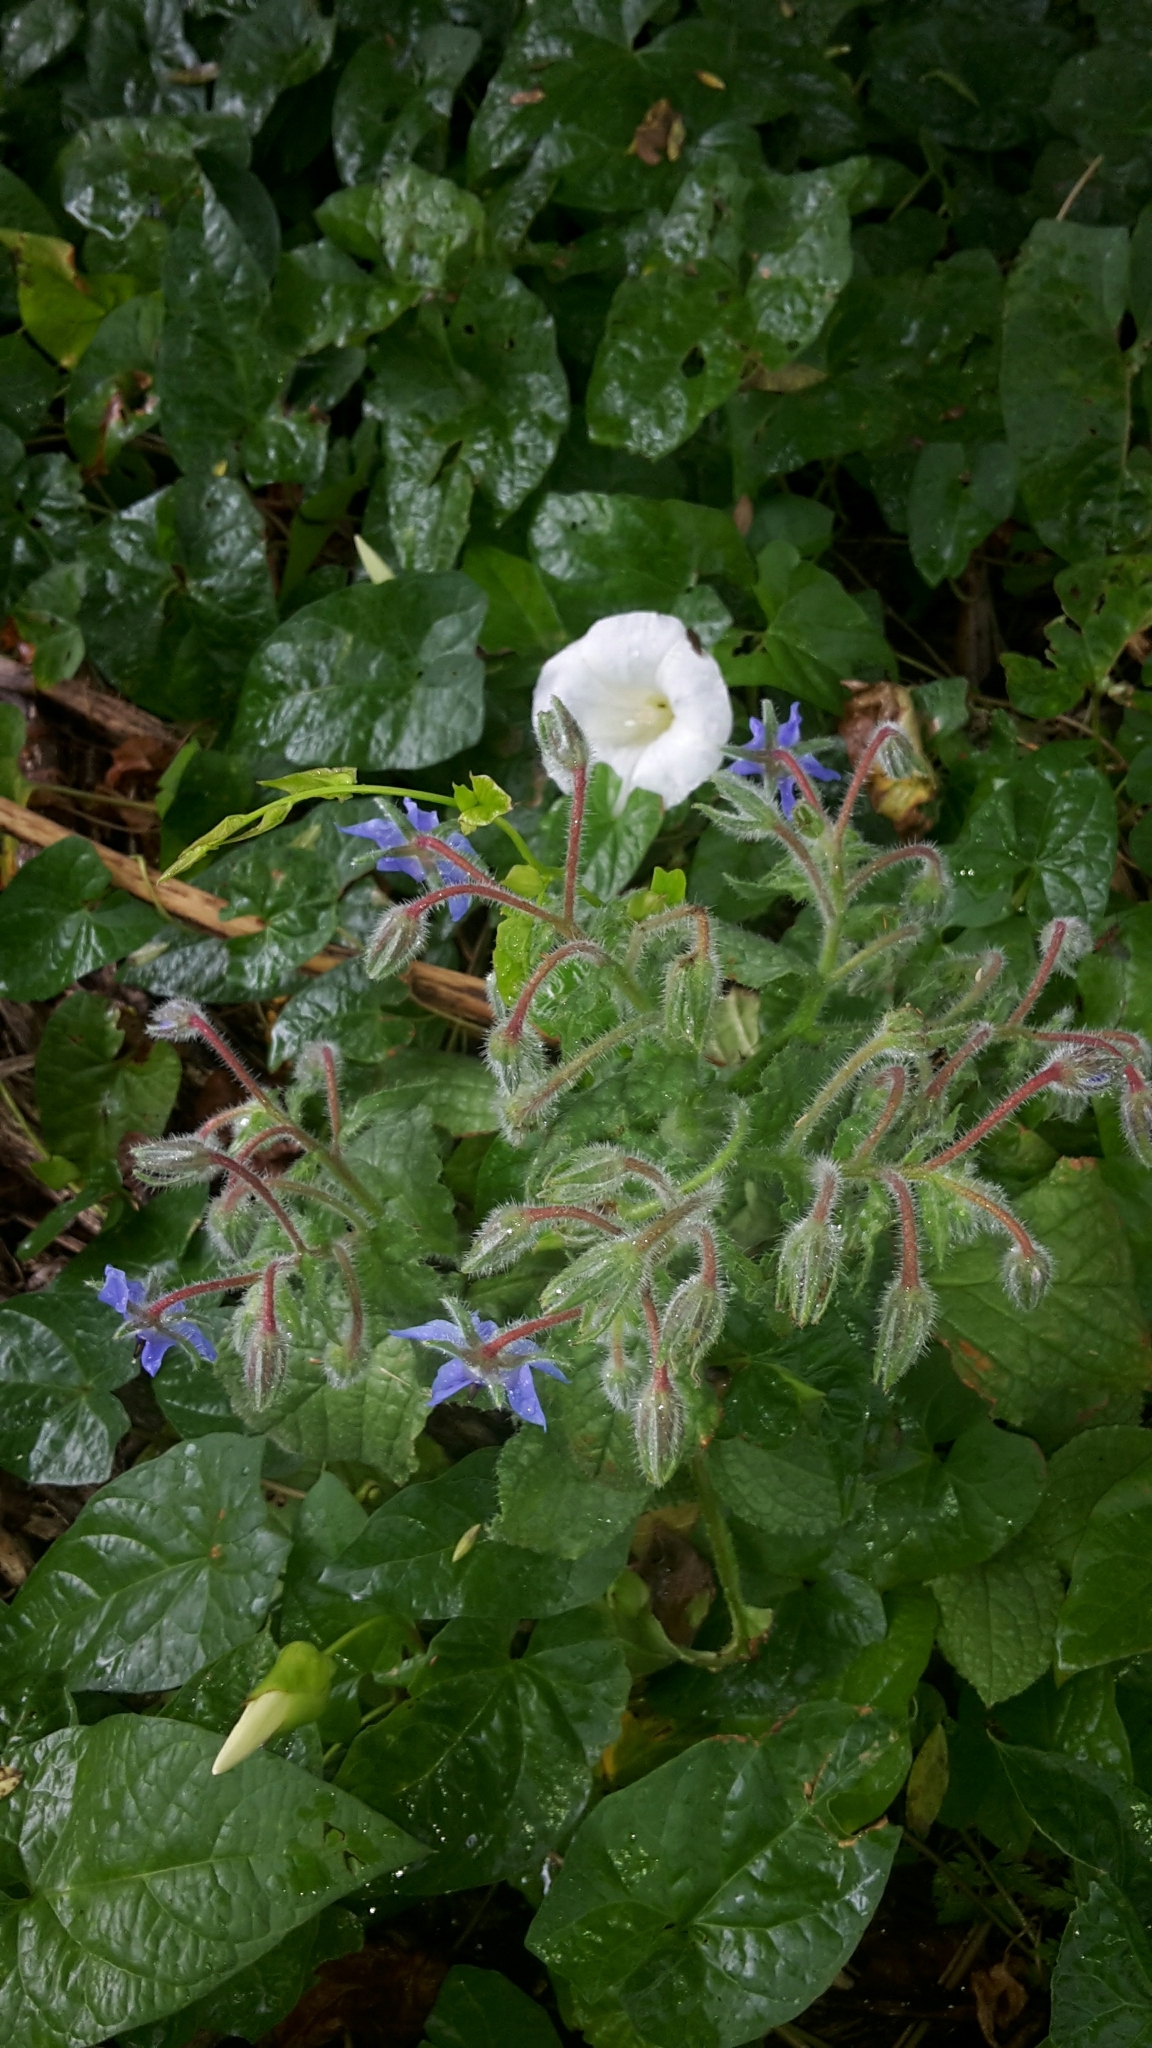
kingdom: Plantae
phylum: Tracheophyta
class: Magnoliopsida
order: Boraginales
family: Boraginaceae
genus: Borago
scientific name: Borago officinalis
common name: Borage
